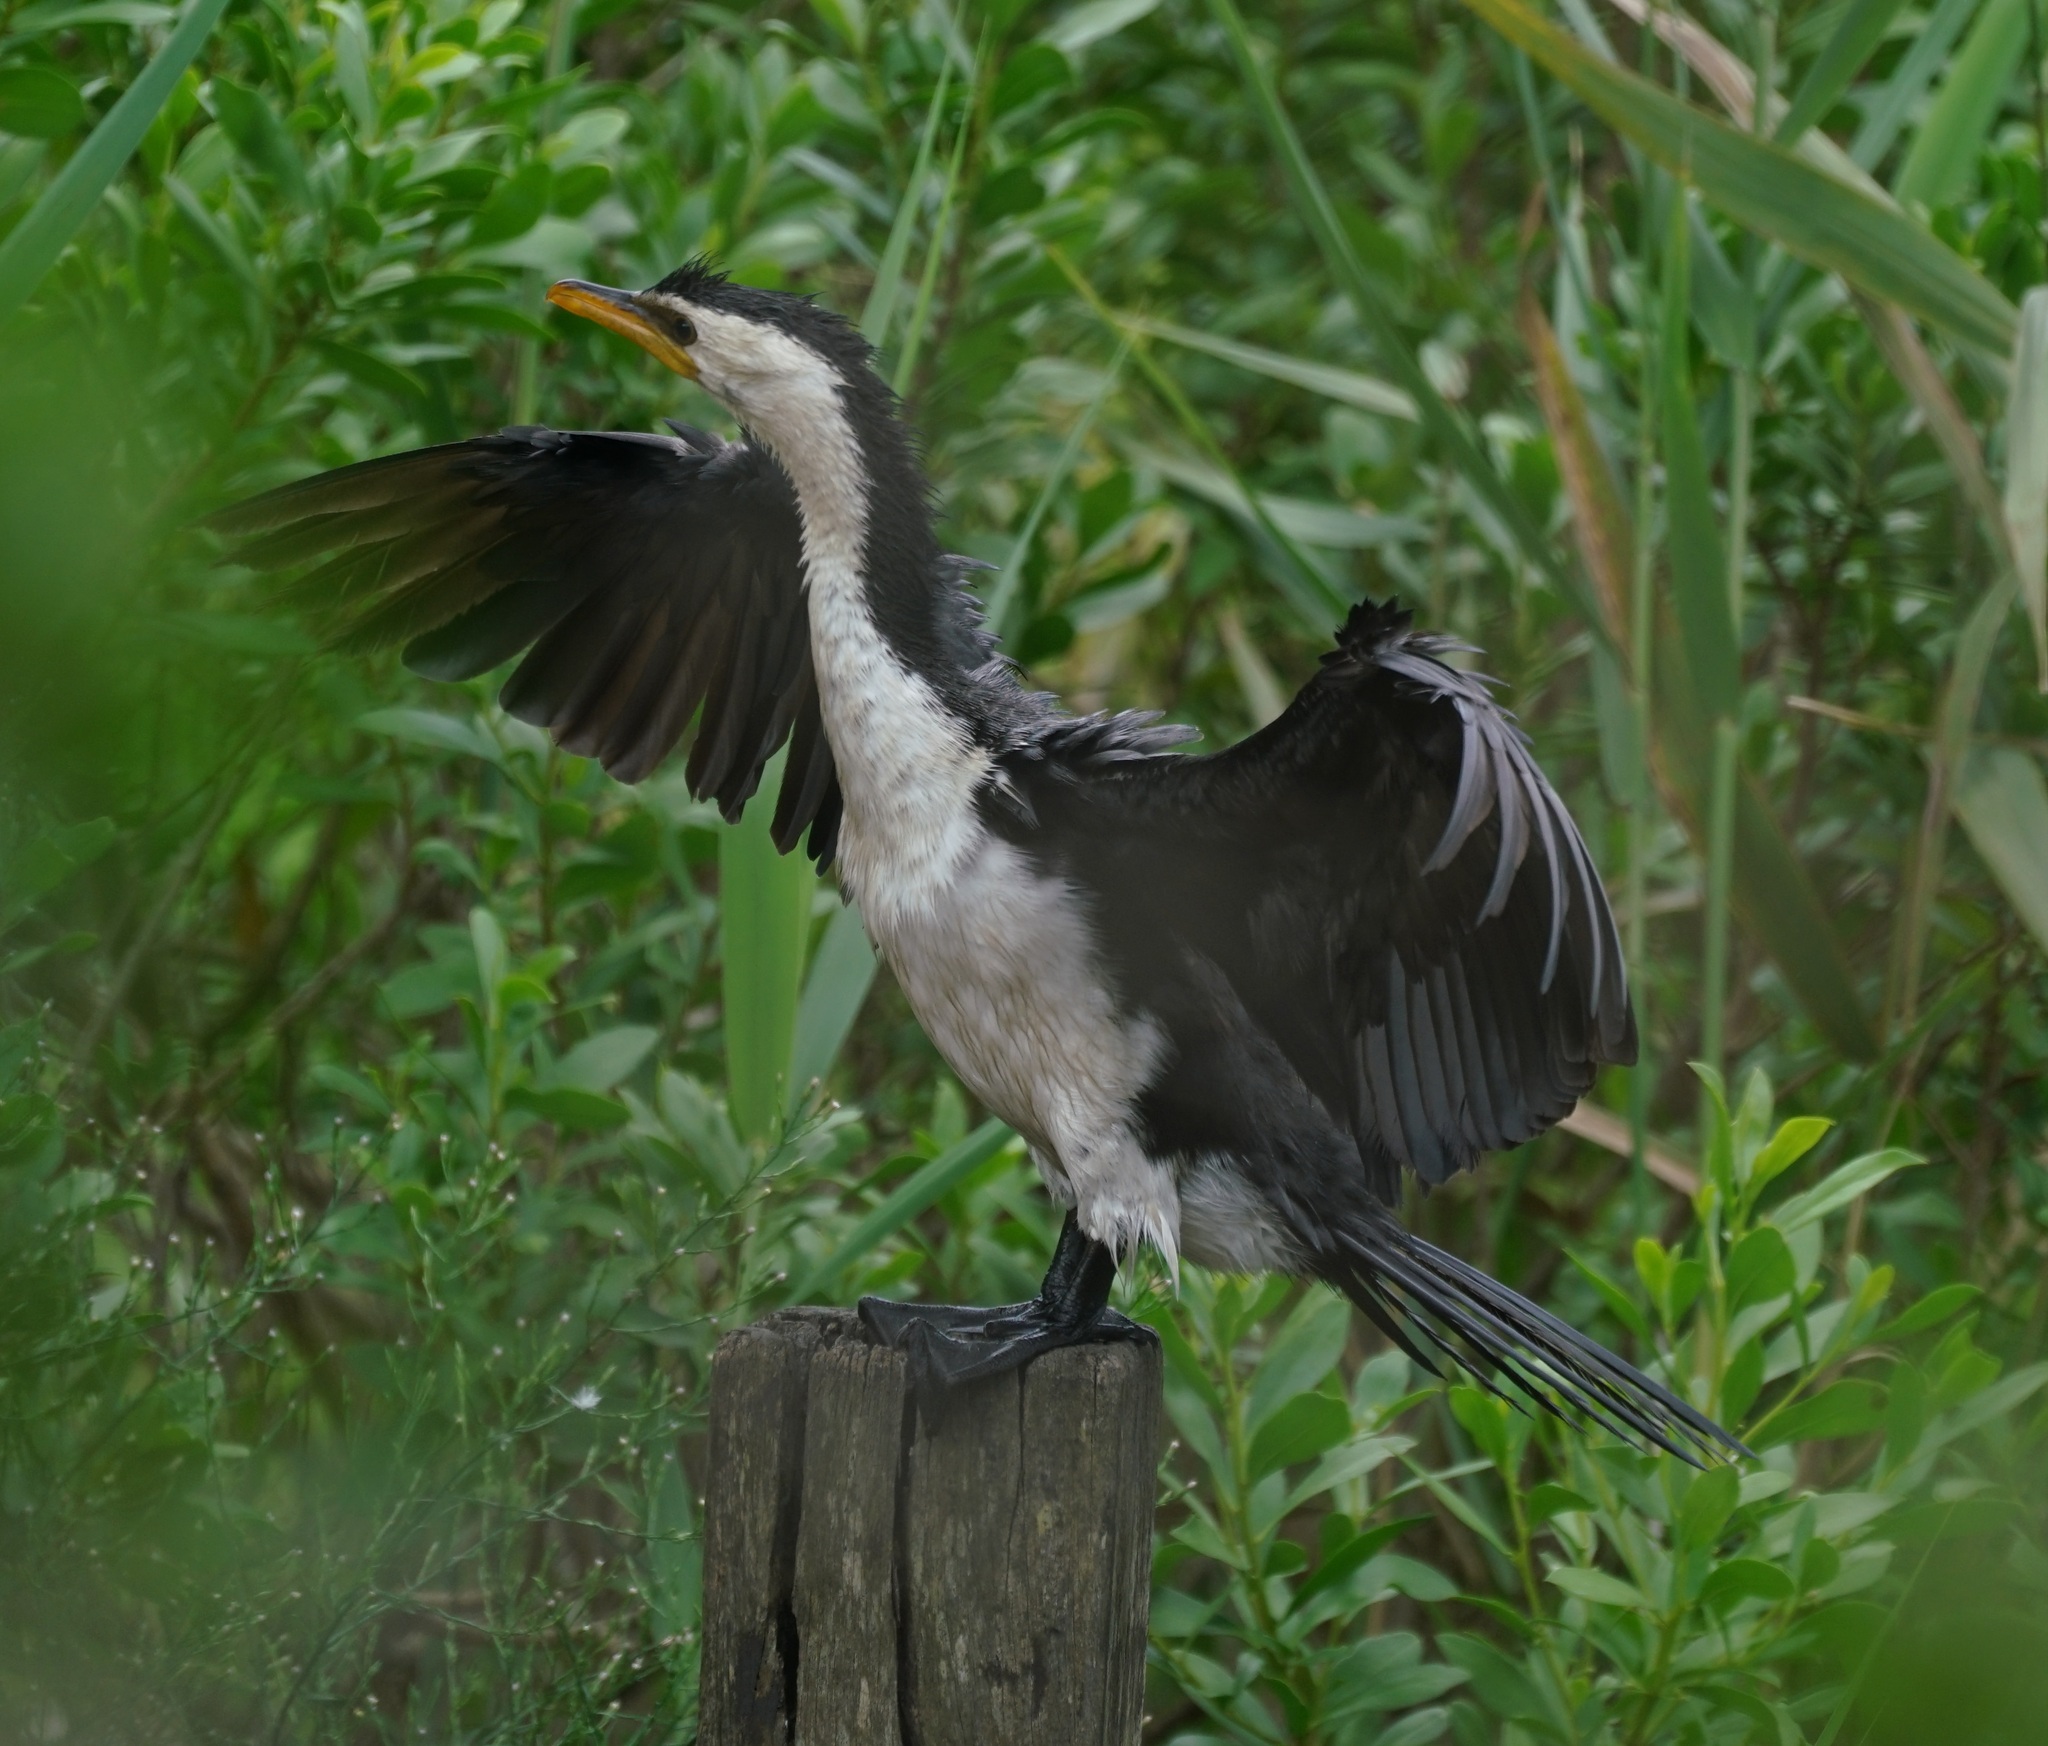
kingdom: Animalia
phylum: Chordata
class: Aves
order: Suliformes
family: Phalacrocoracidae
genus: Microcarbo
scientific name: Microcarbo melanoleucos
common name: Little pied cormorant
